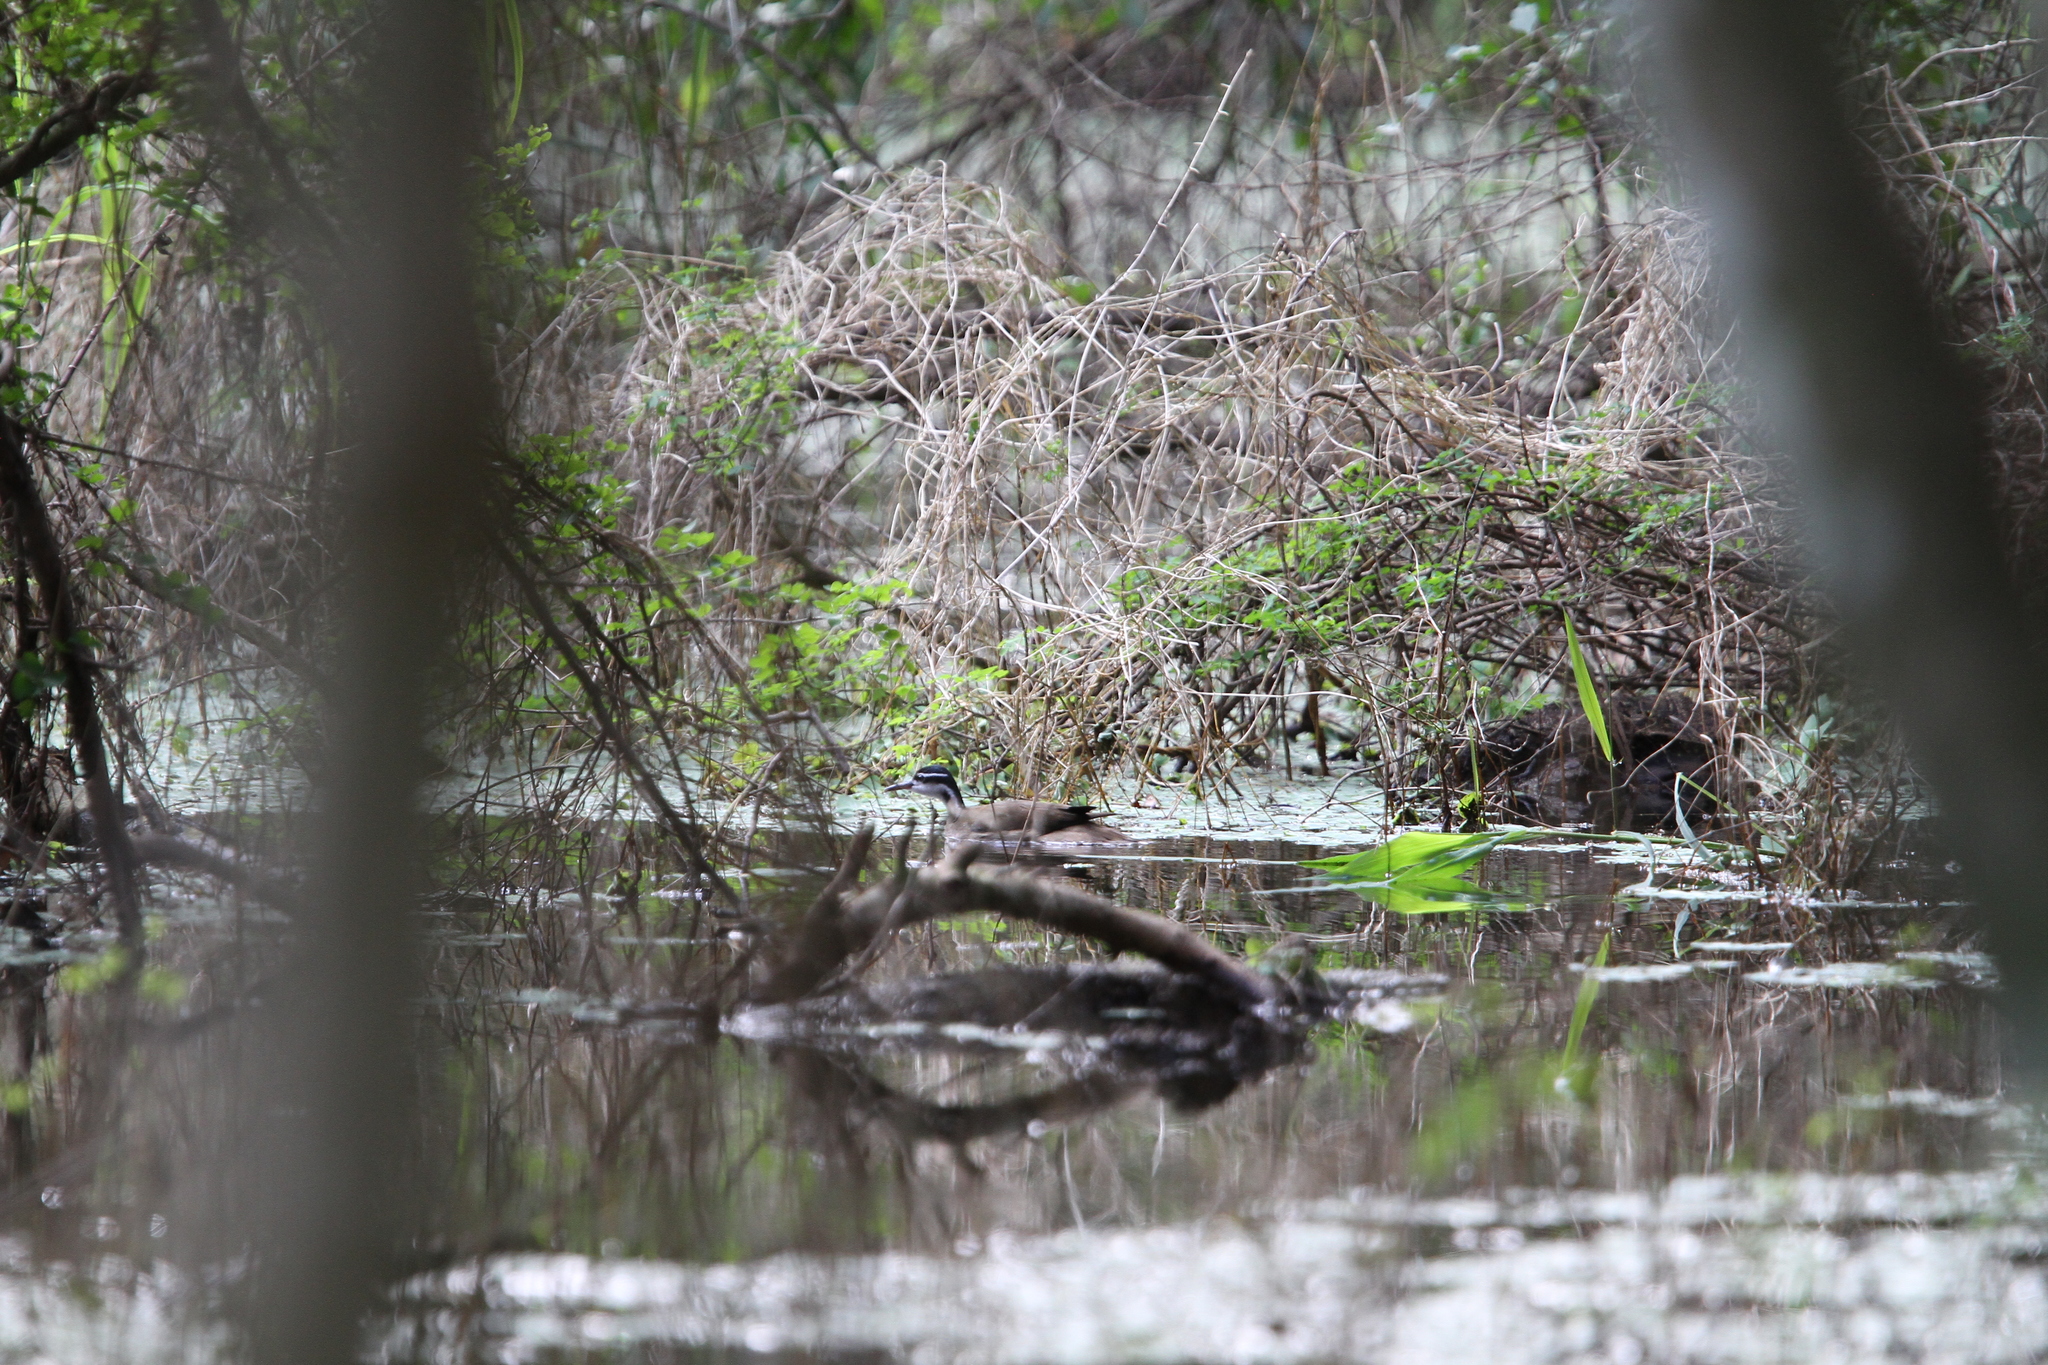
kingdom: Animalia
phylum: Chordata
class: Aves
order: Gruiformes
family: Heliornithidae
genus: Heliornis
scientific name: Heliornis fulica
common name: Sungrebe
